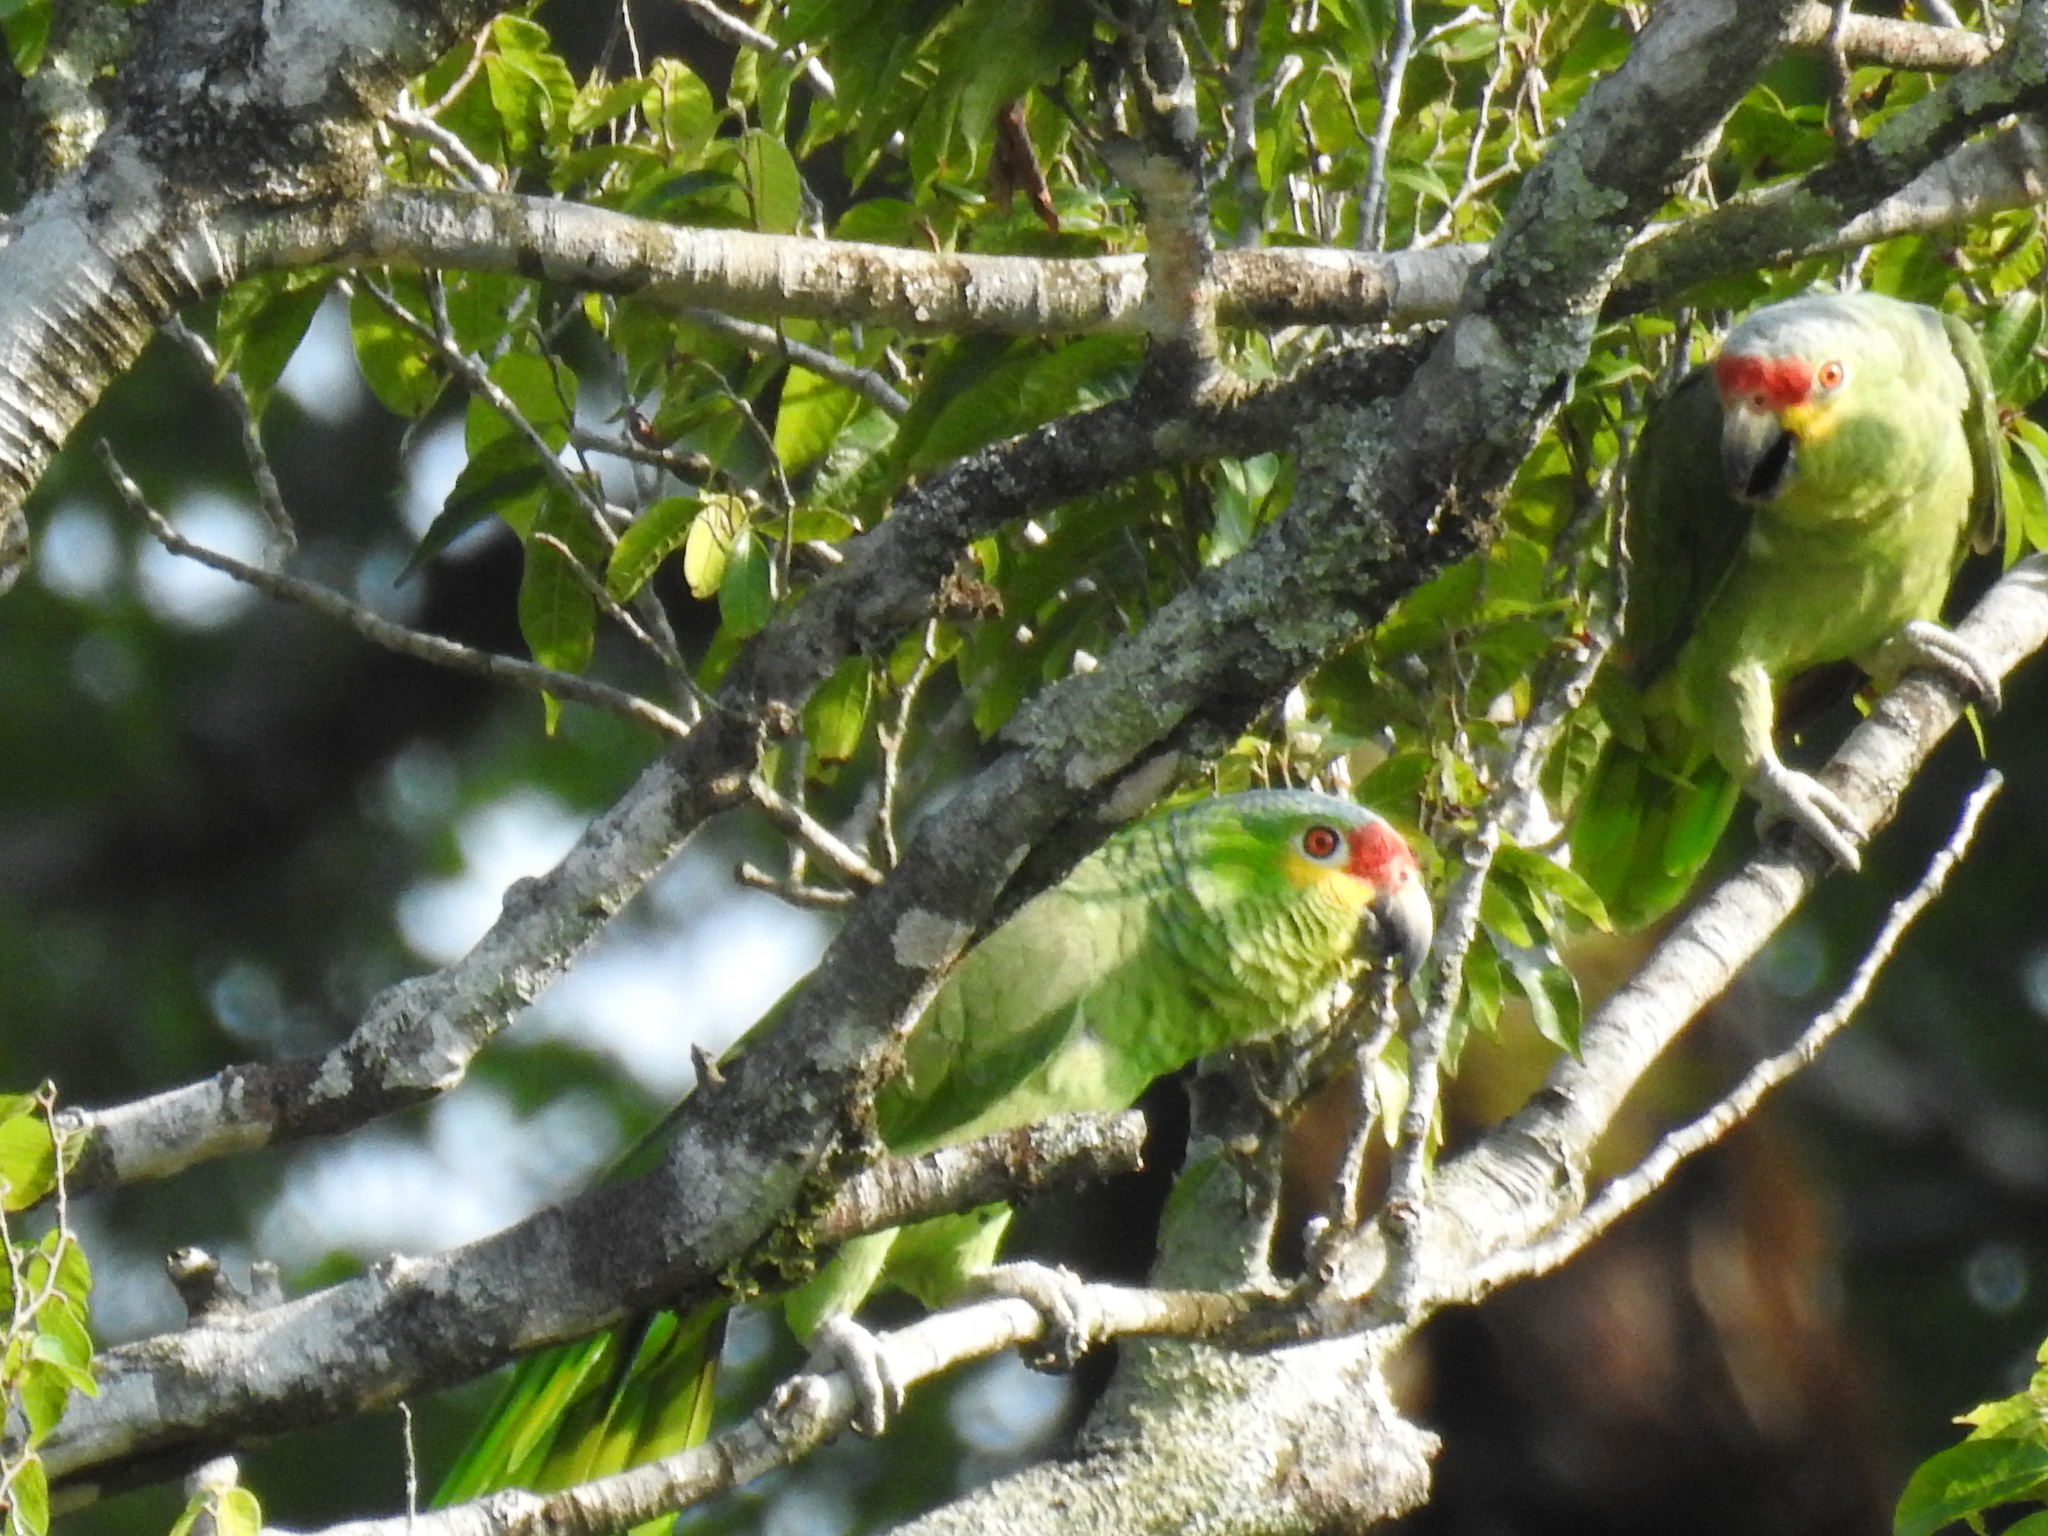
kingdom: Animalia
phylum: Chordata
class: Aves
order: Psittaciformes
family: Psittacidae
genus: Amazona
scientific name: Amazona autumnalis
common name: Red-lored amazon
